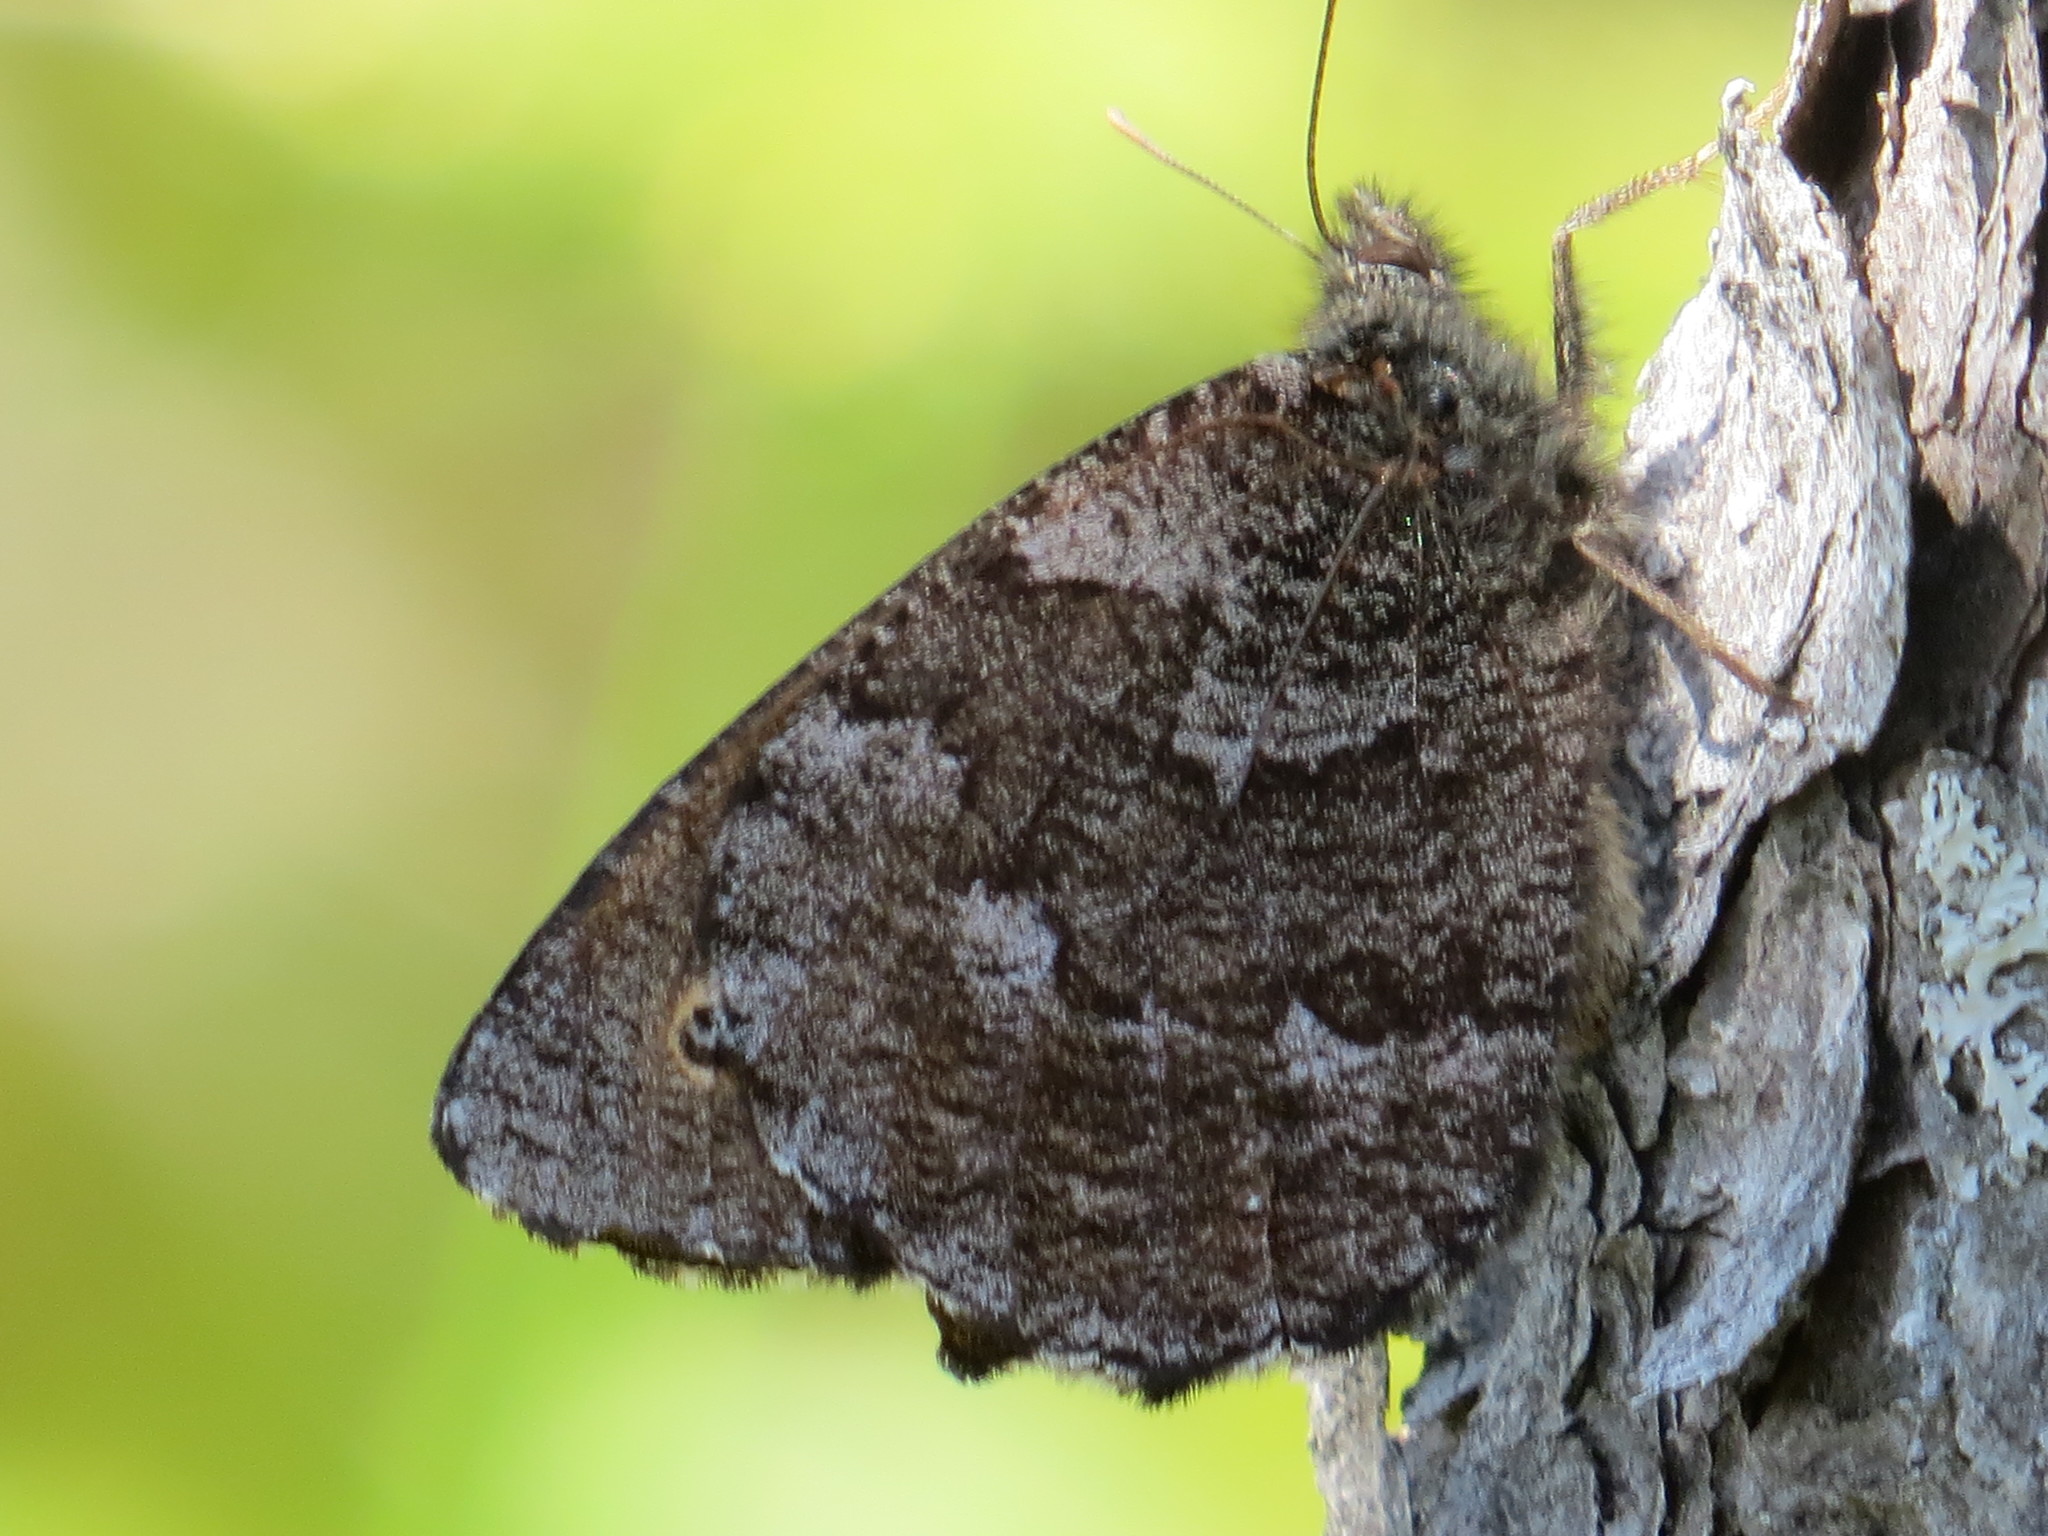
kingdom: Animalia
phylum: Arthropoda
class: Insecta
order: Lepidoptera
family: Nymphalidae
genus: Oeneis
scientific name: Oeneis jutta
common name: Baltic grayling
